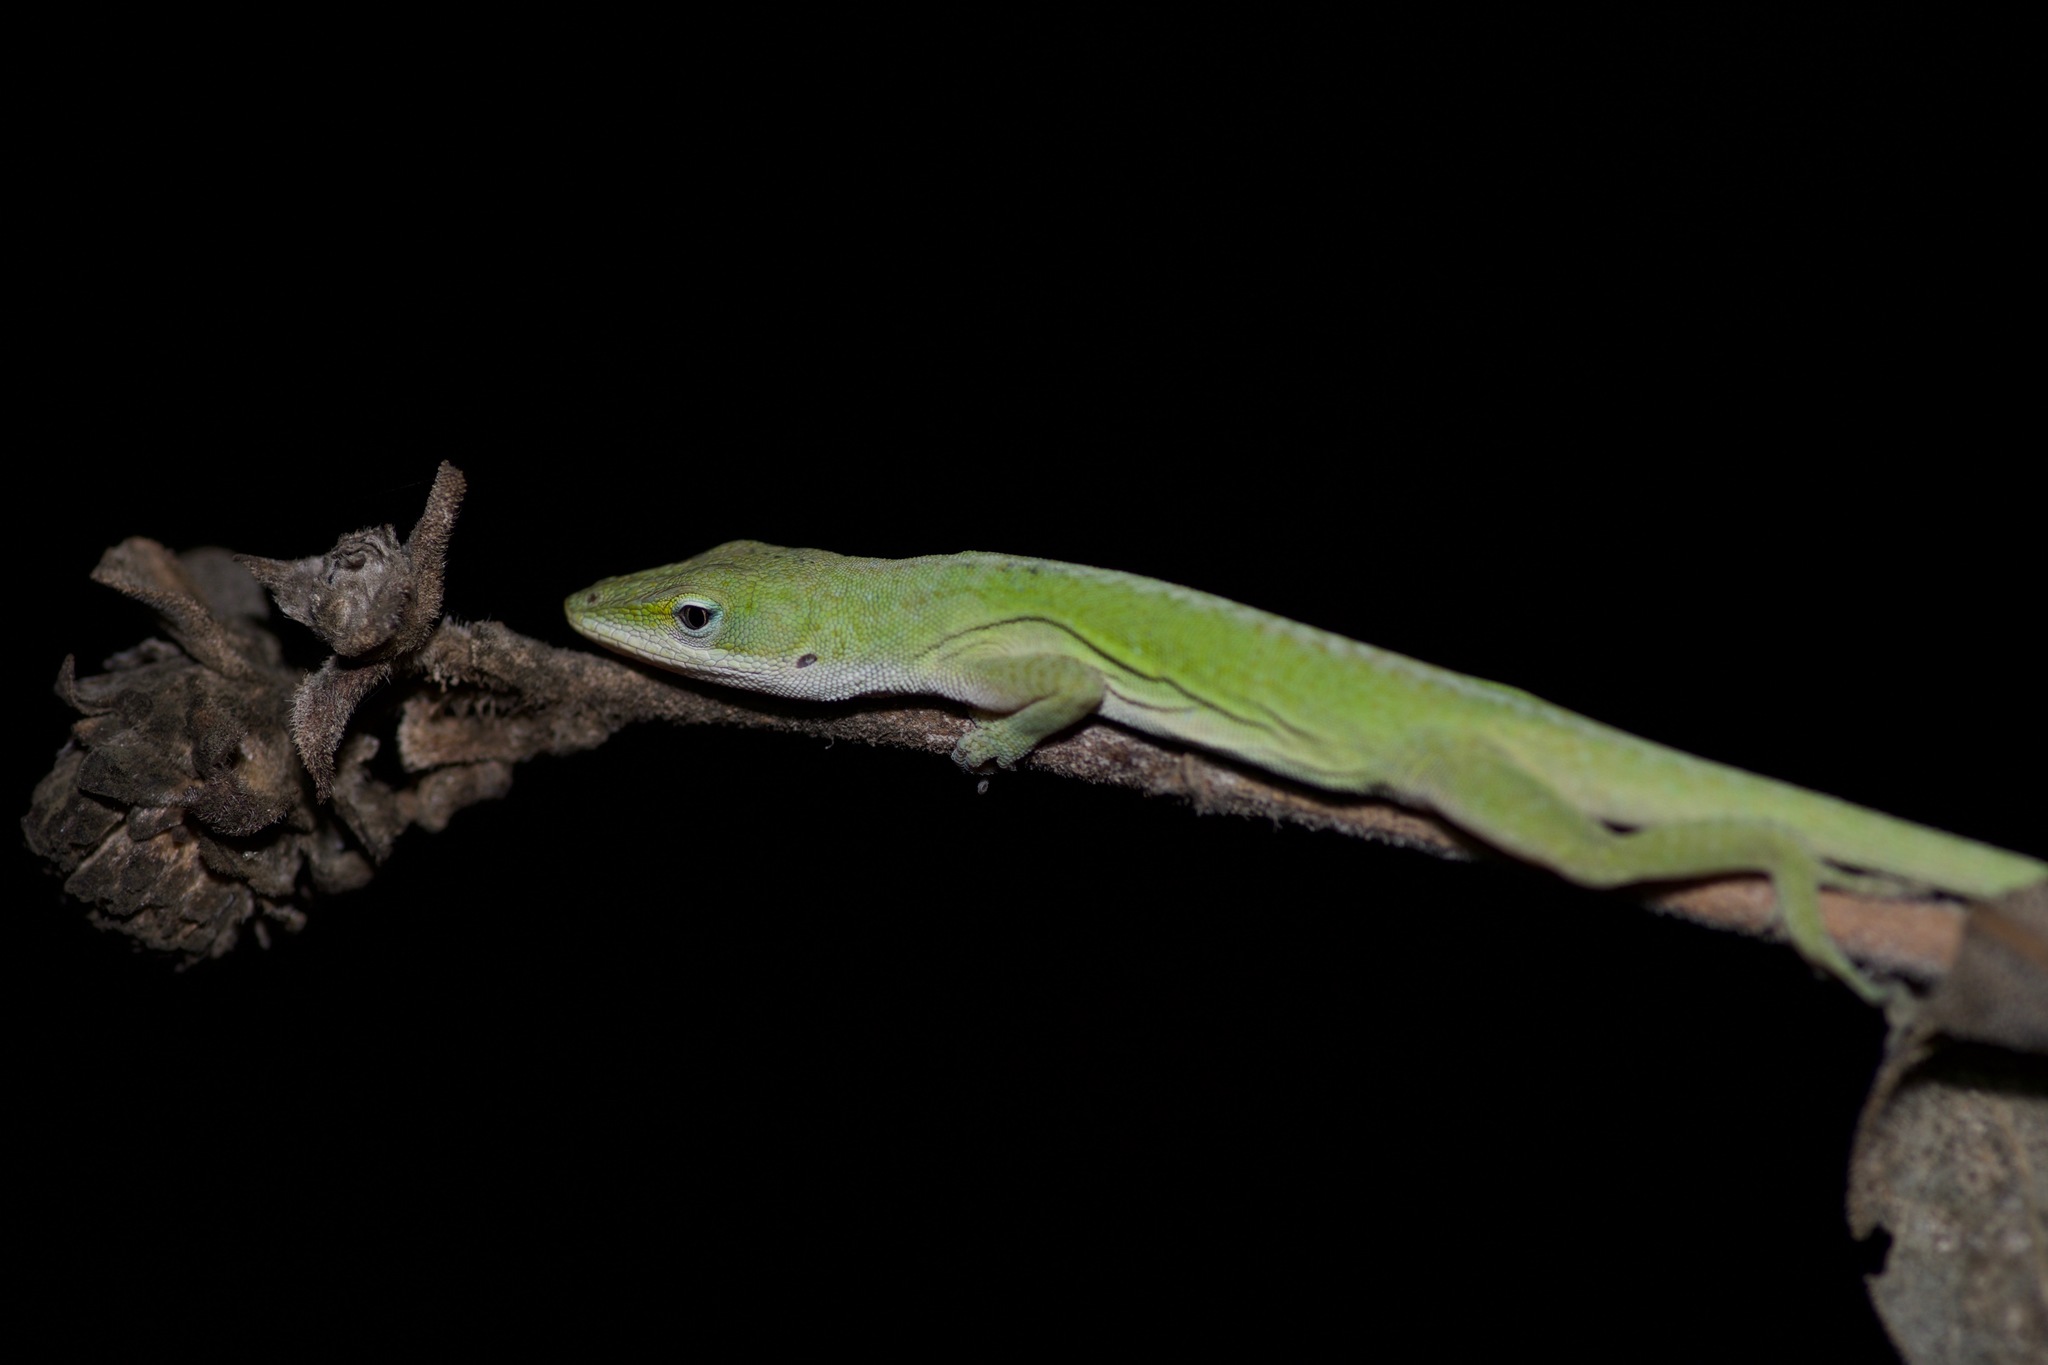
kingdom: Animalia
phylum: Chordata
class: Squamata
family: Dactyloidae
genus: Anolis
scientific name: Anolis carolinensis
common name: Green anole
